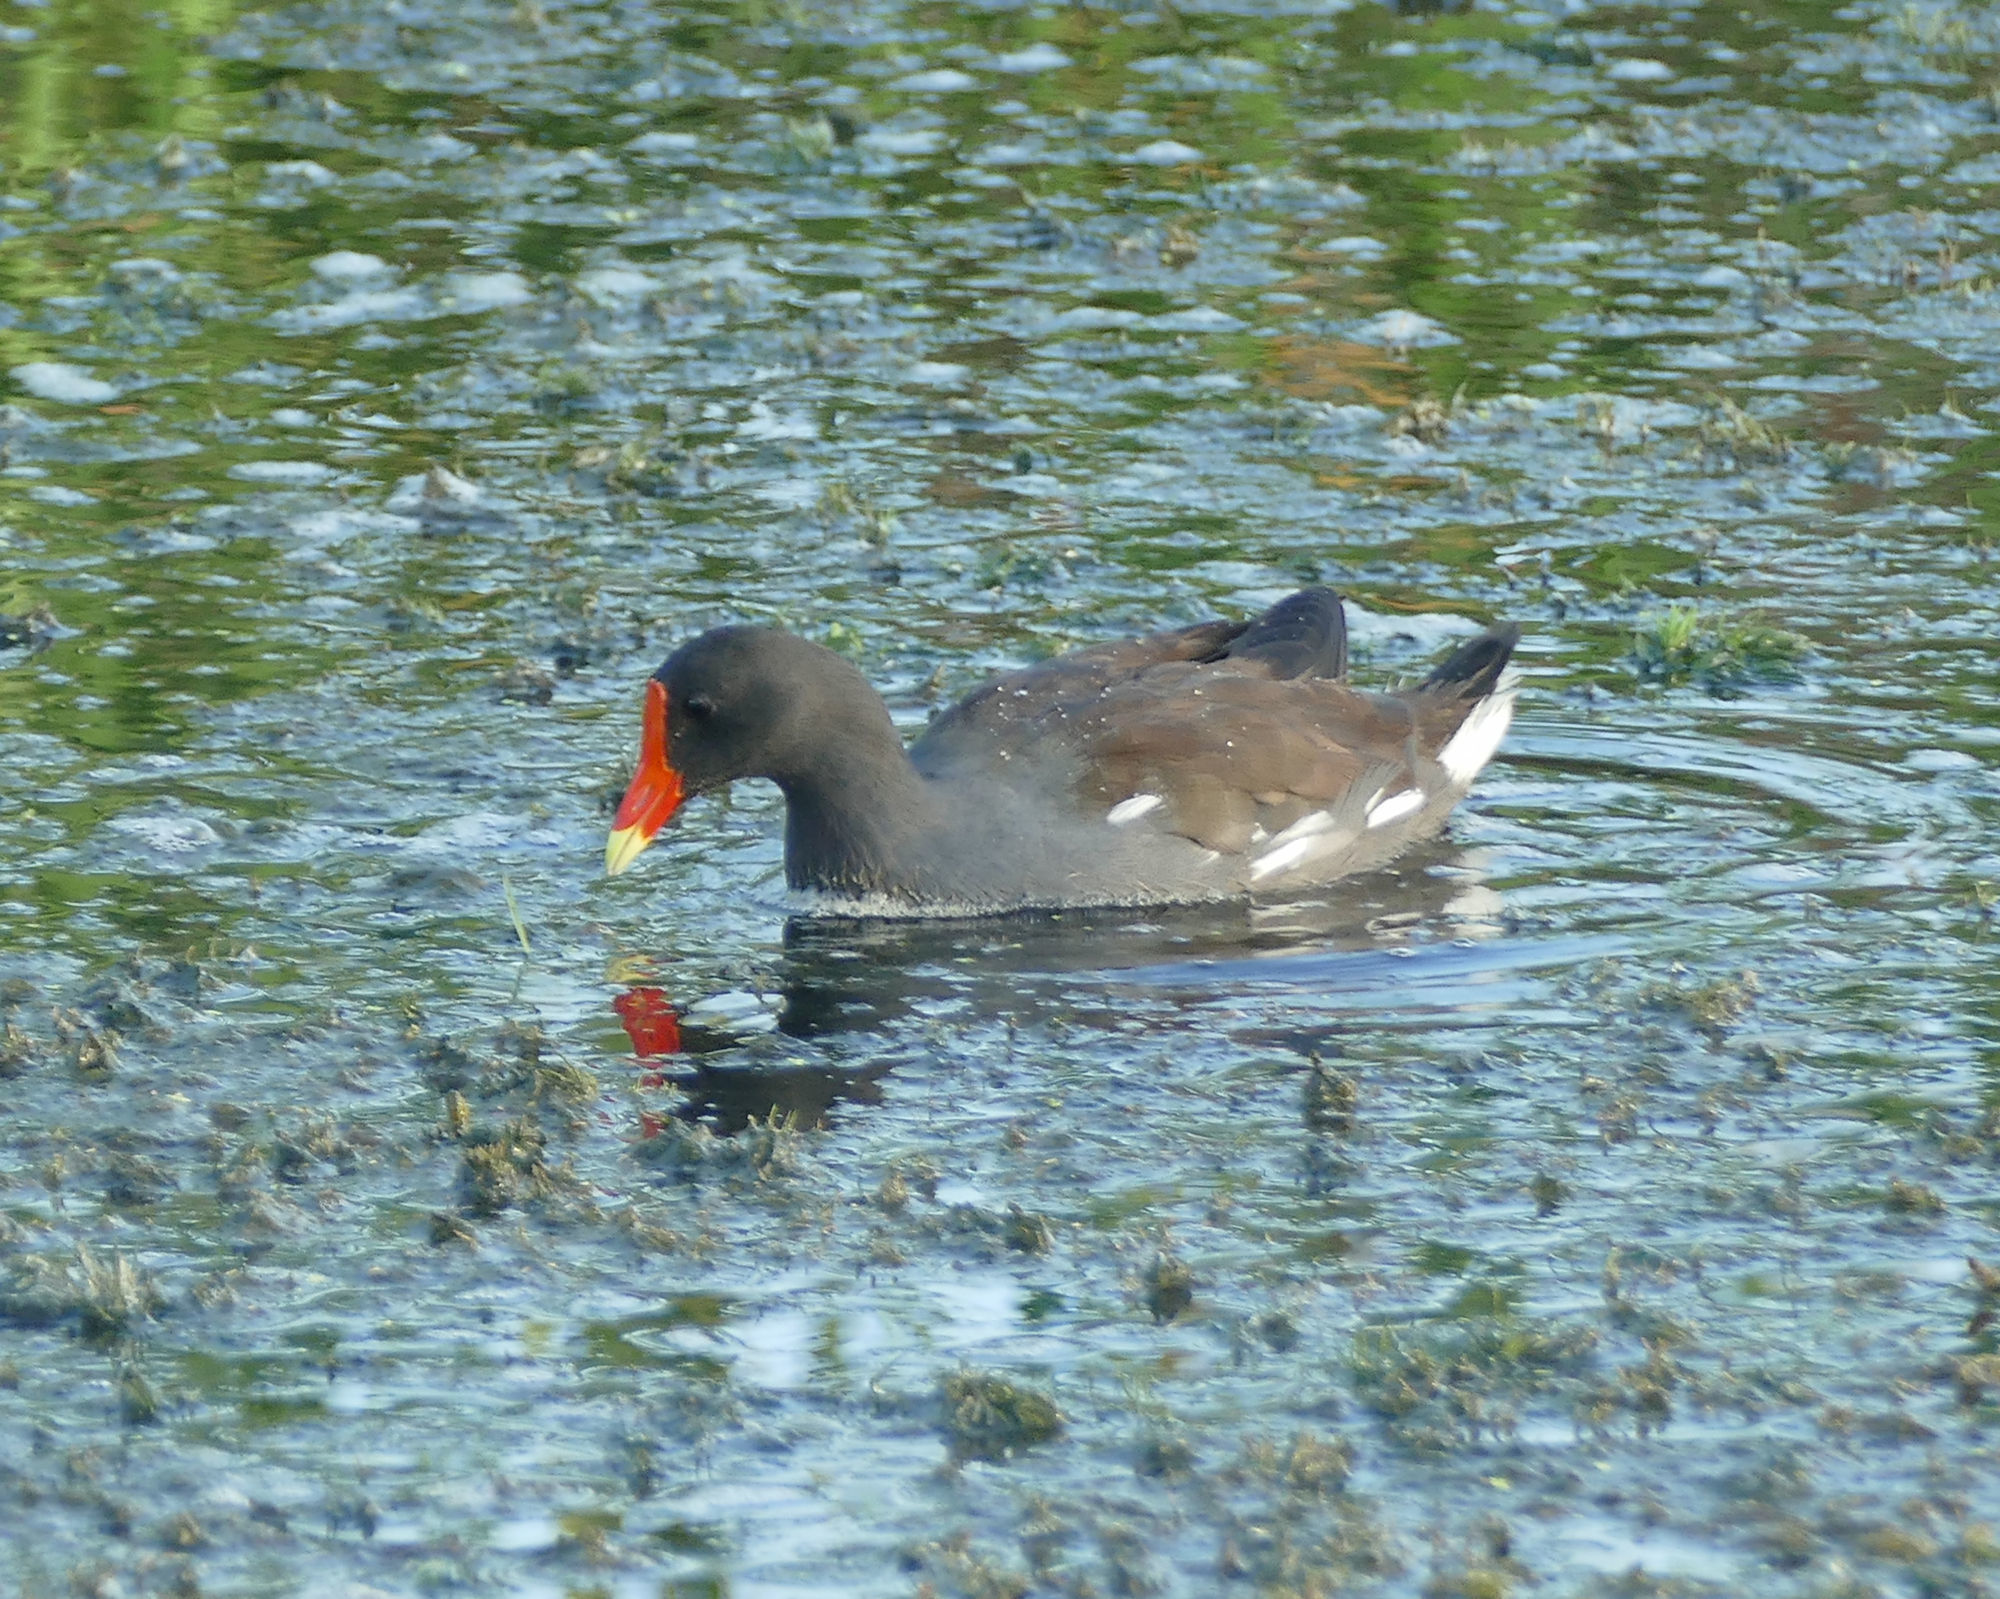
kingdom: Animalia
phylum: Chordata
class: Aves
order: Gruiformes
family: Rallidae
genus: Gallinula
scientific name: Gallinula chloropus
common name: Common moorhen
